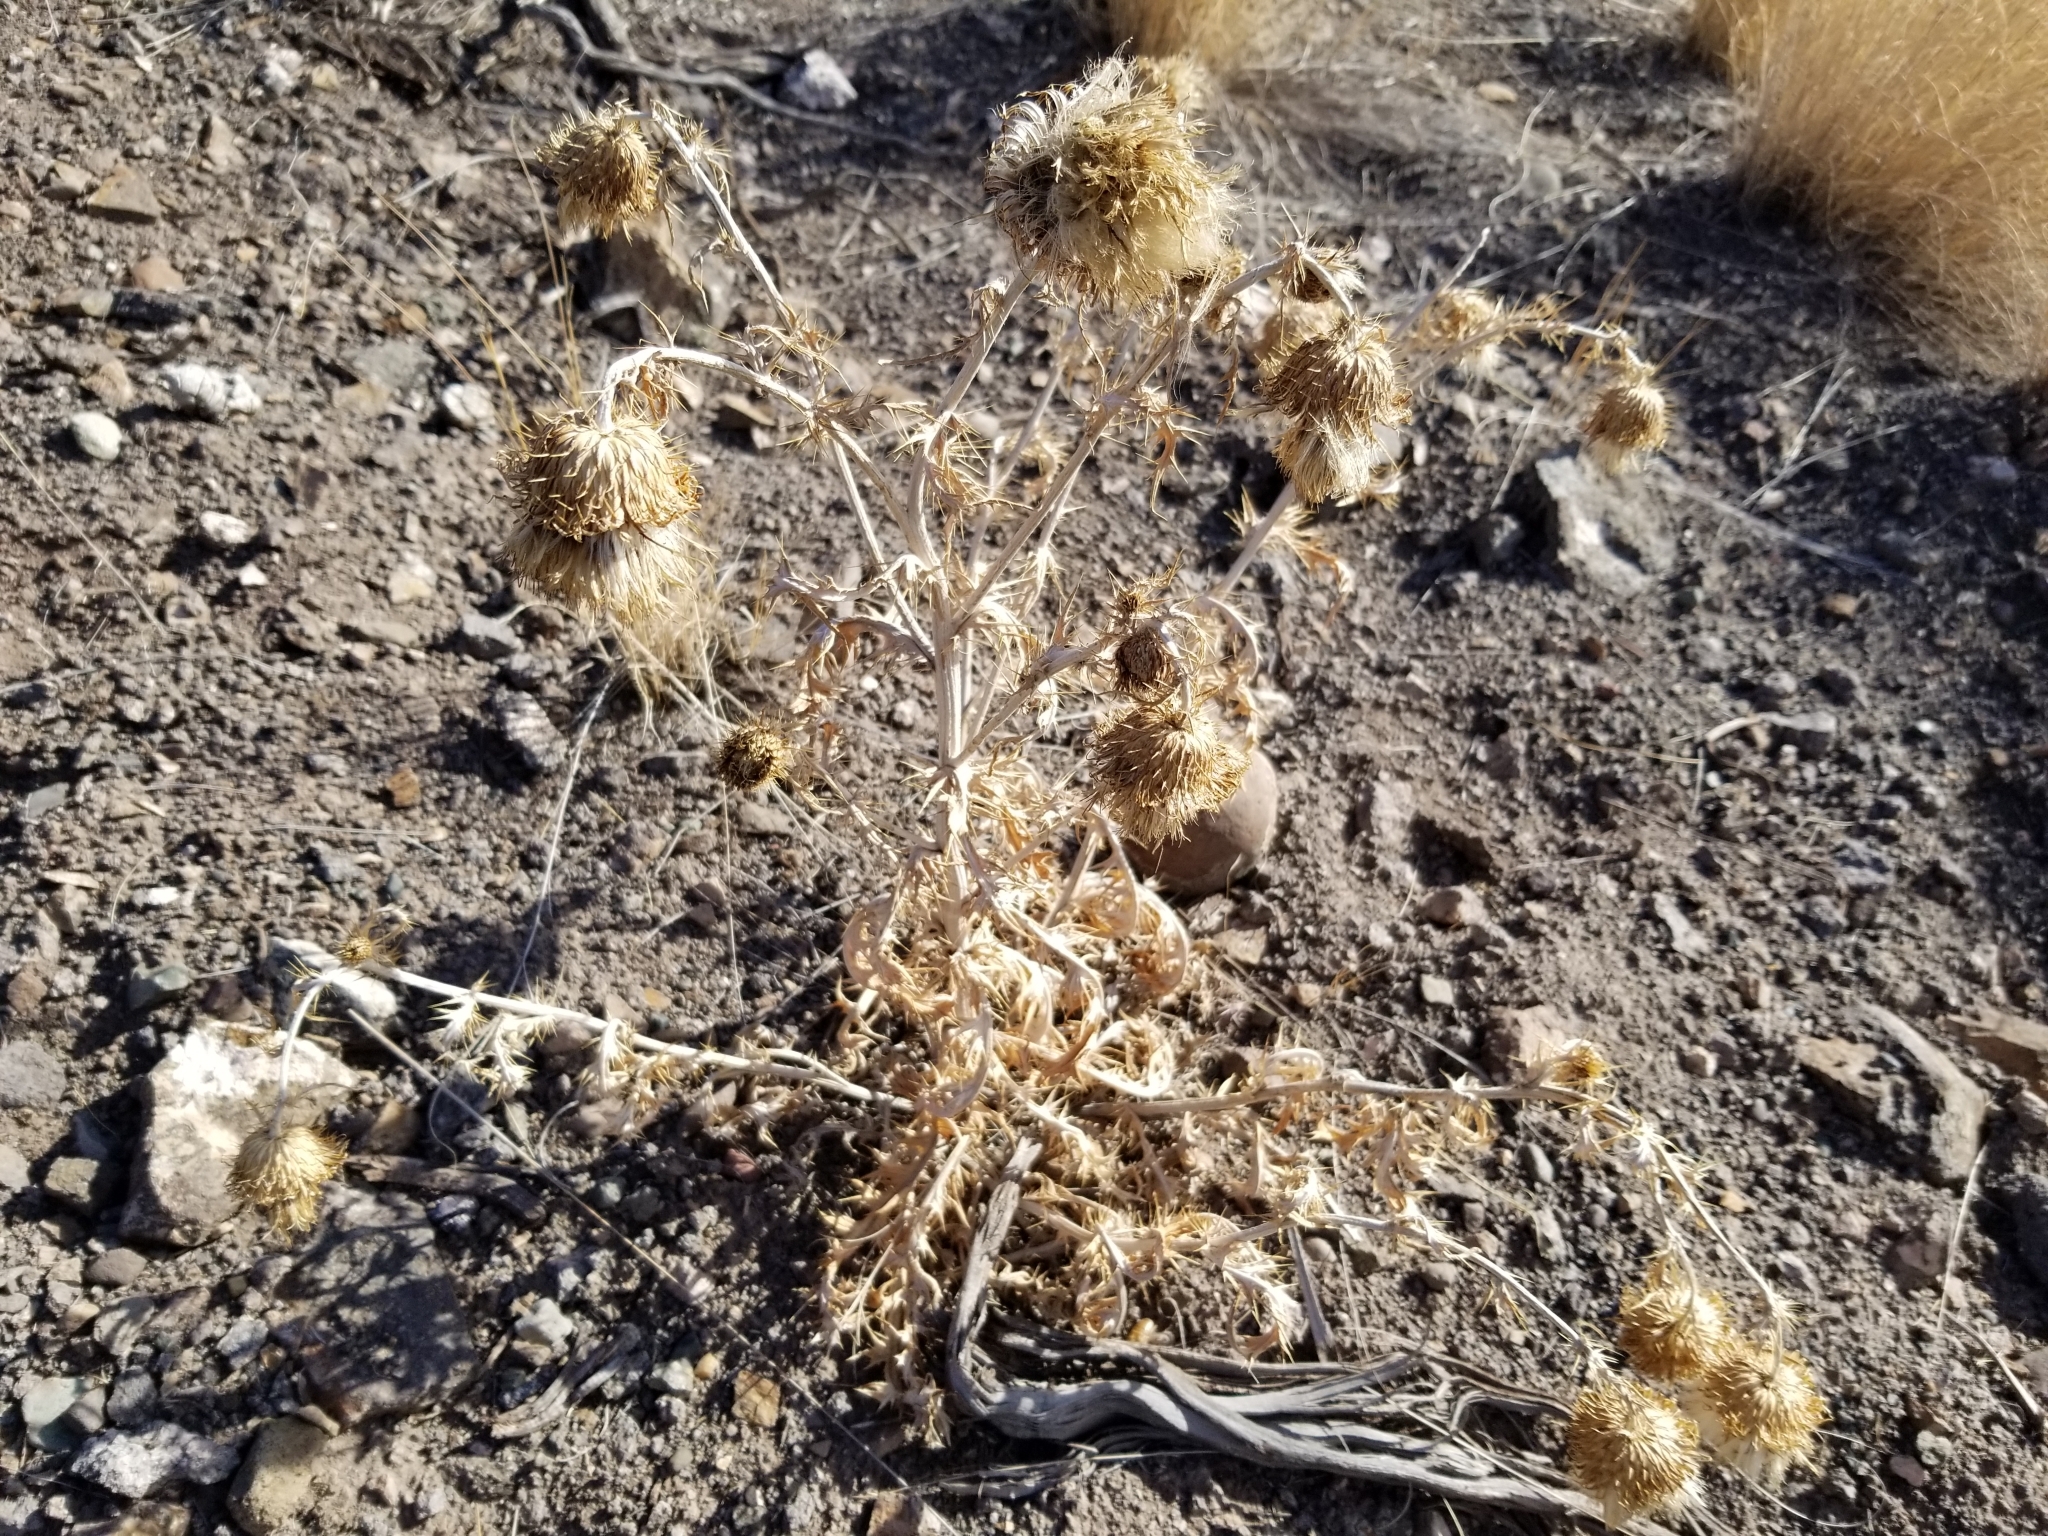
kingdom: Plantae
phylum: Tracheophyta
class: Magnoliopsida
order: Asterales
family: Asteraceae
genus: Cirsium
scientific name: Cirsium undulatum
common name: Pasture thistle
